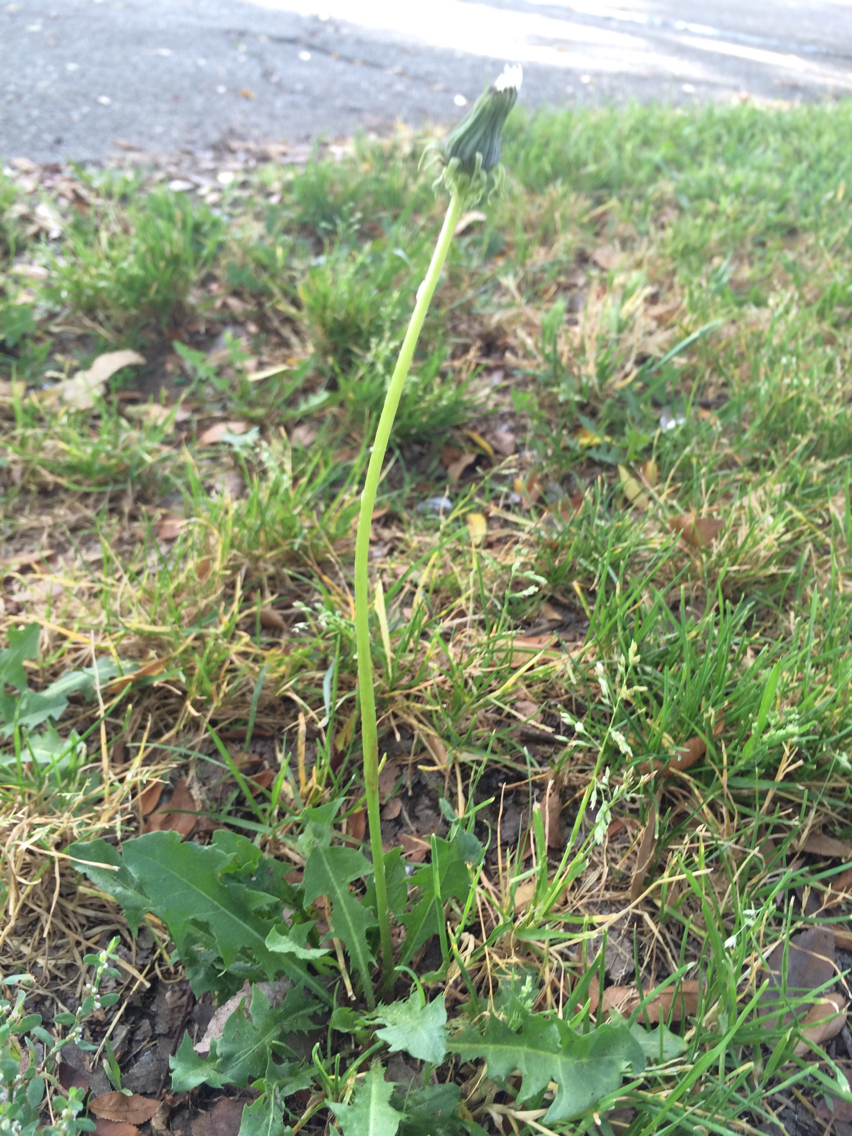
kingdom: Plantae
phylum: Tracheophyta
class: Magnoliopsida
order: Asterales
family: Asteraceae
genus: Taraxacum
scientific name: Taraxacum officinale
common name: Common dandelion
